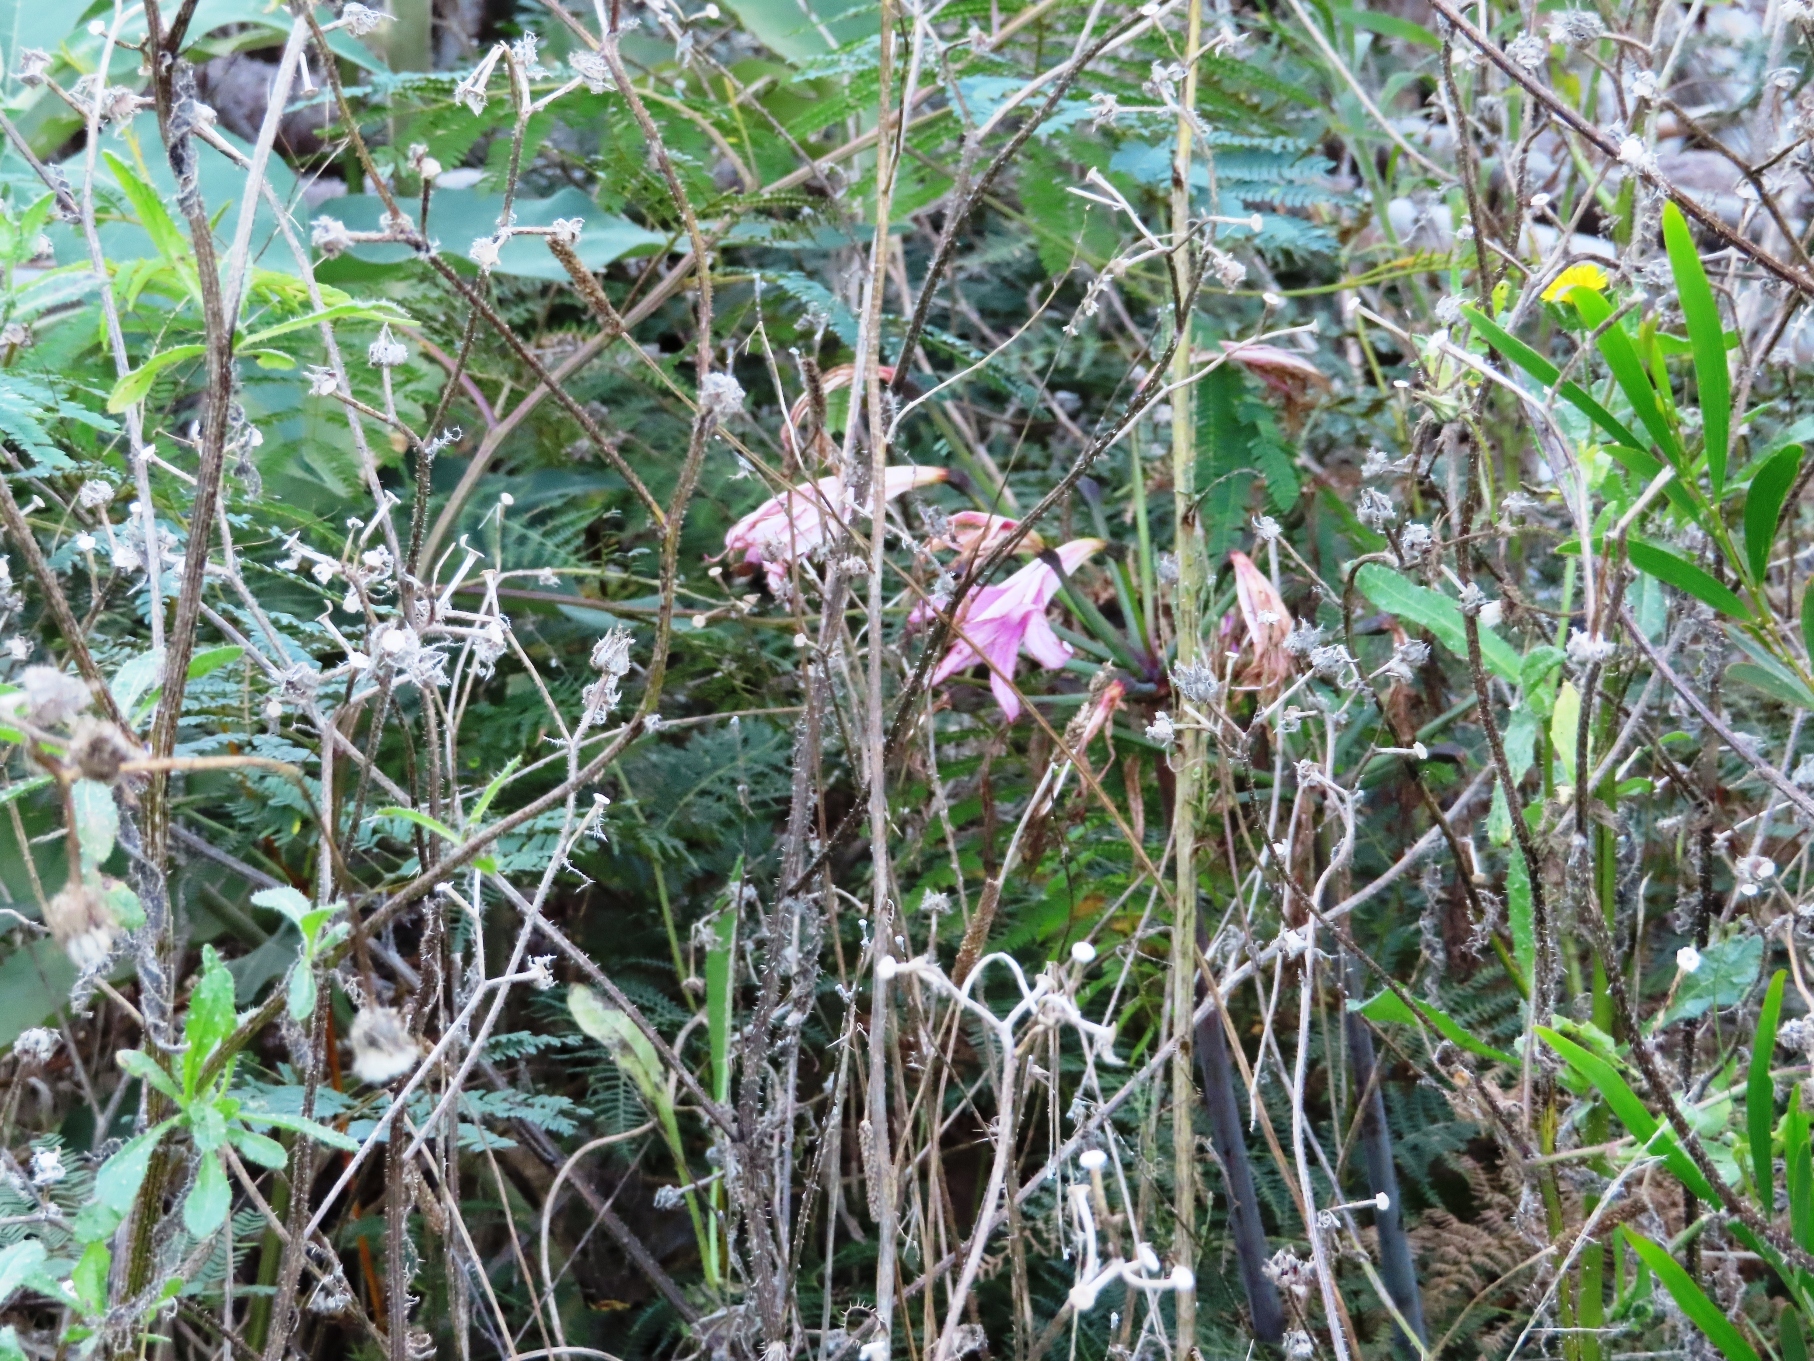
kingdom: Plantae
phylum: Tracheophyta
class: Liliopsida
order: Asparagales
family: Amaryllidaceae
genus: Amaryllis
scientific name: Amaryllis belladonna
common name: Jersey lily
